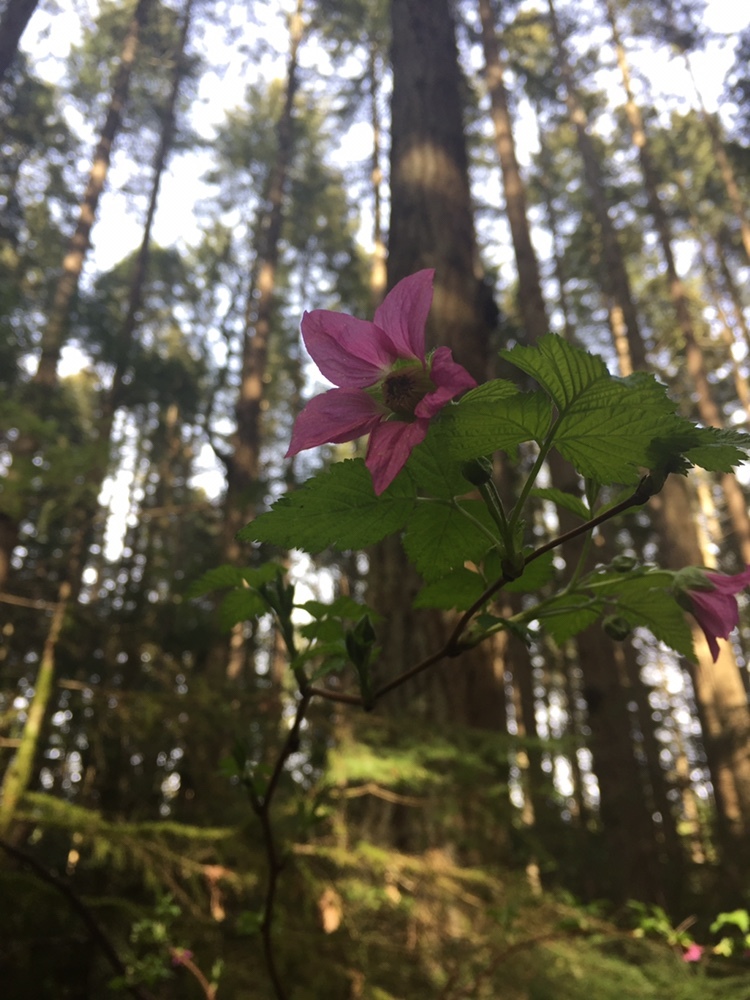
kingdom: Plantae
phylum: Tracheophyta
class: Magnoliopsida
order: Rosales
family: Rosaceae
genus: Rubus
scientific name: Rubus spectabilis
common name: Salmonberry
